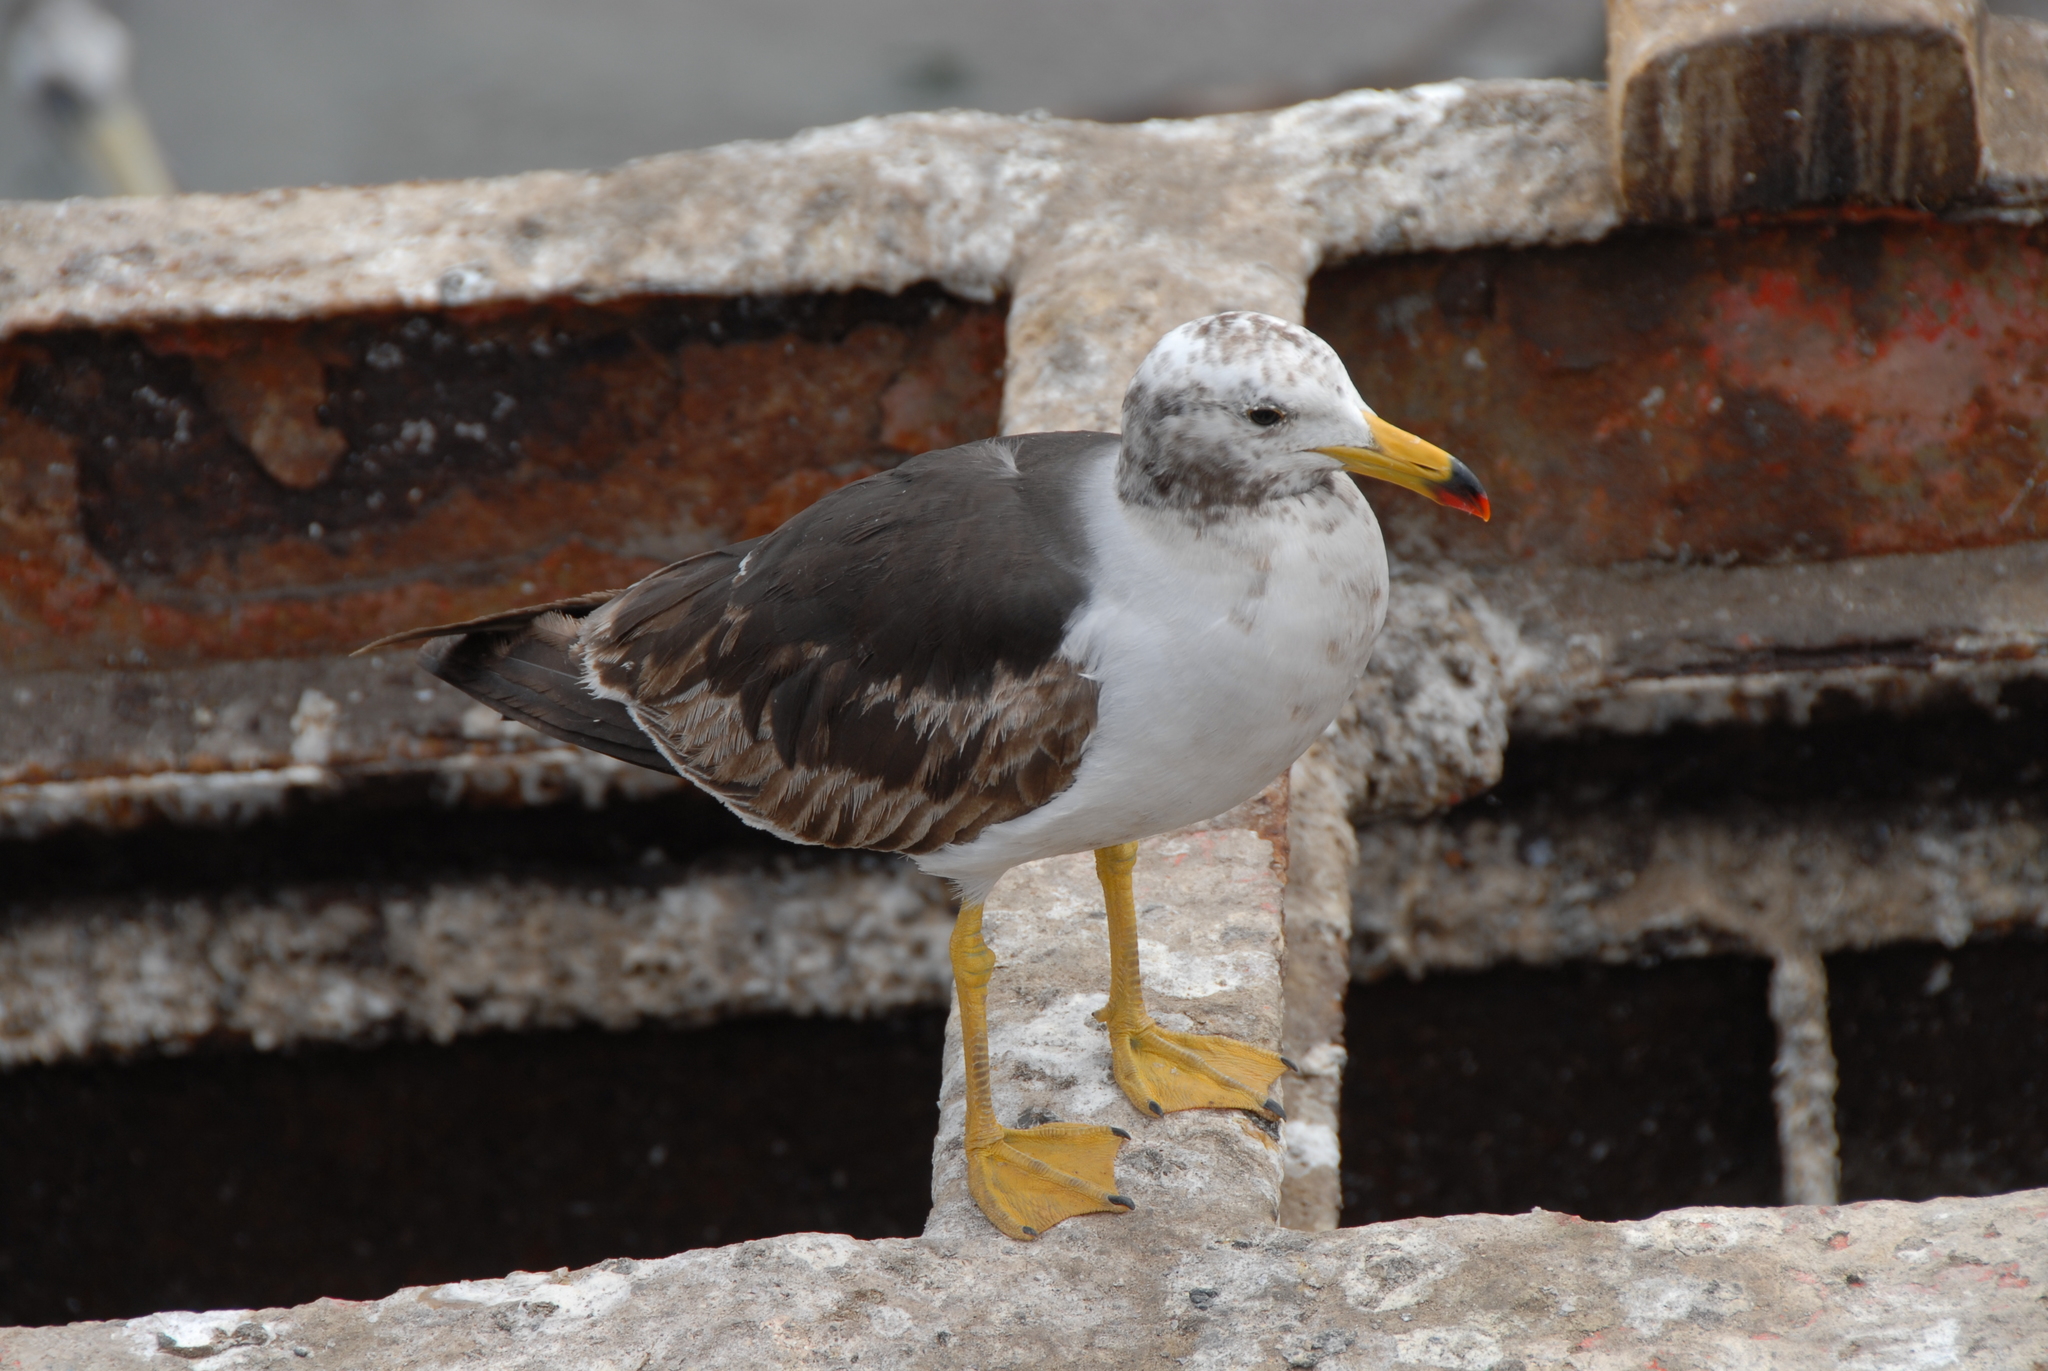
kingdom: Animalia
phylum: Chordata
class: Aves
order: Charadriiformes
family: Laridae
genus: Larus
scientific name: Larus belcheri
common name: Belcher's gull
